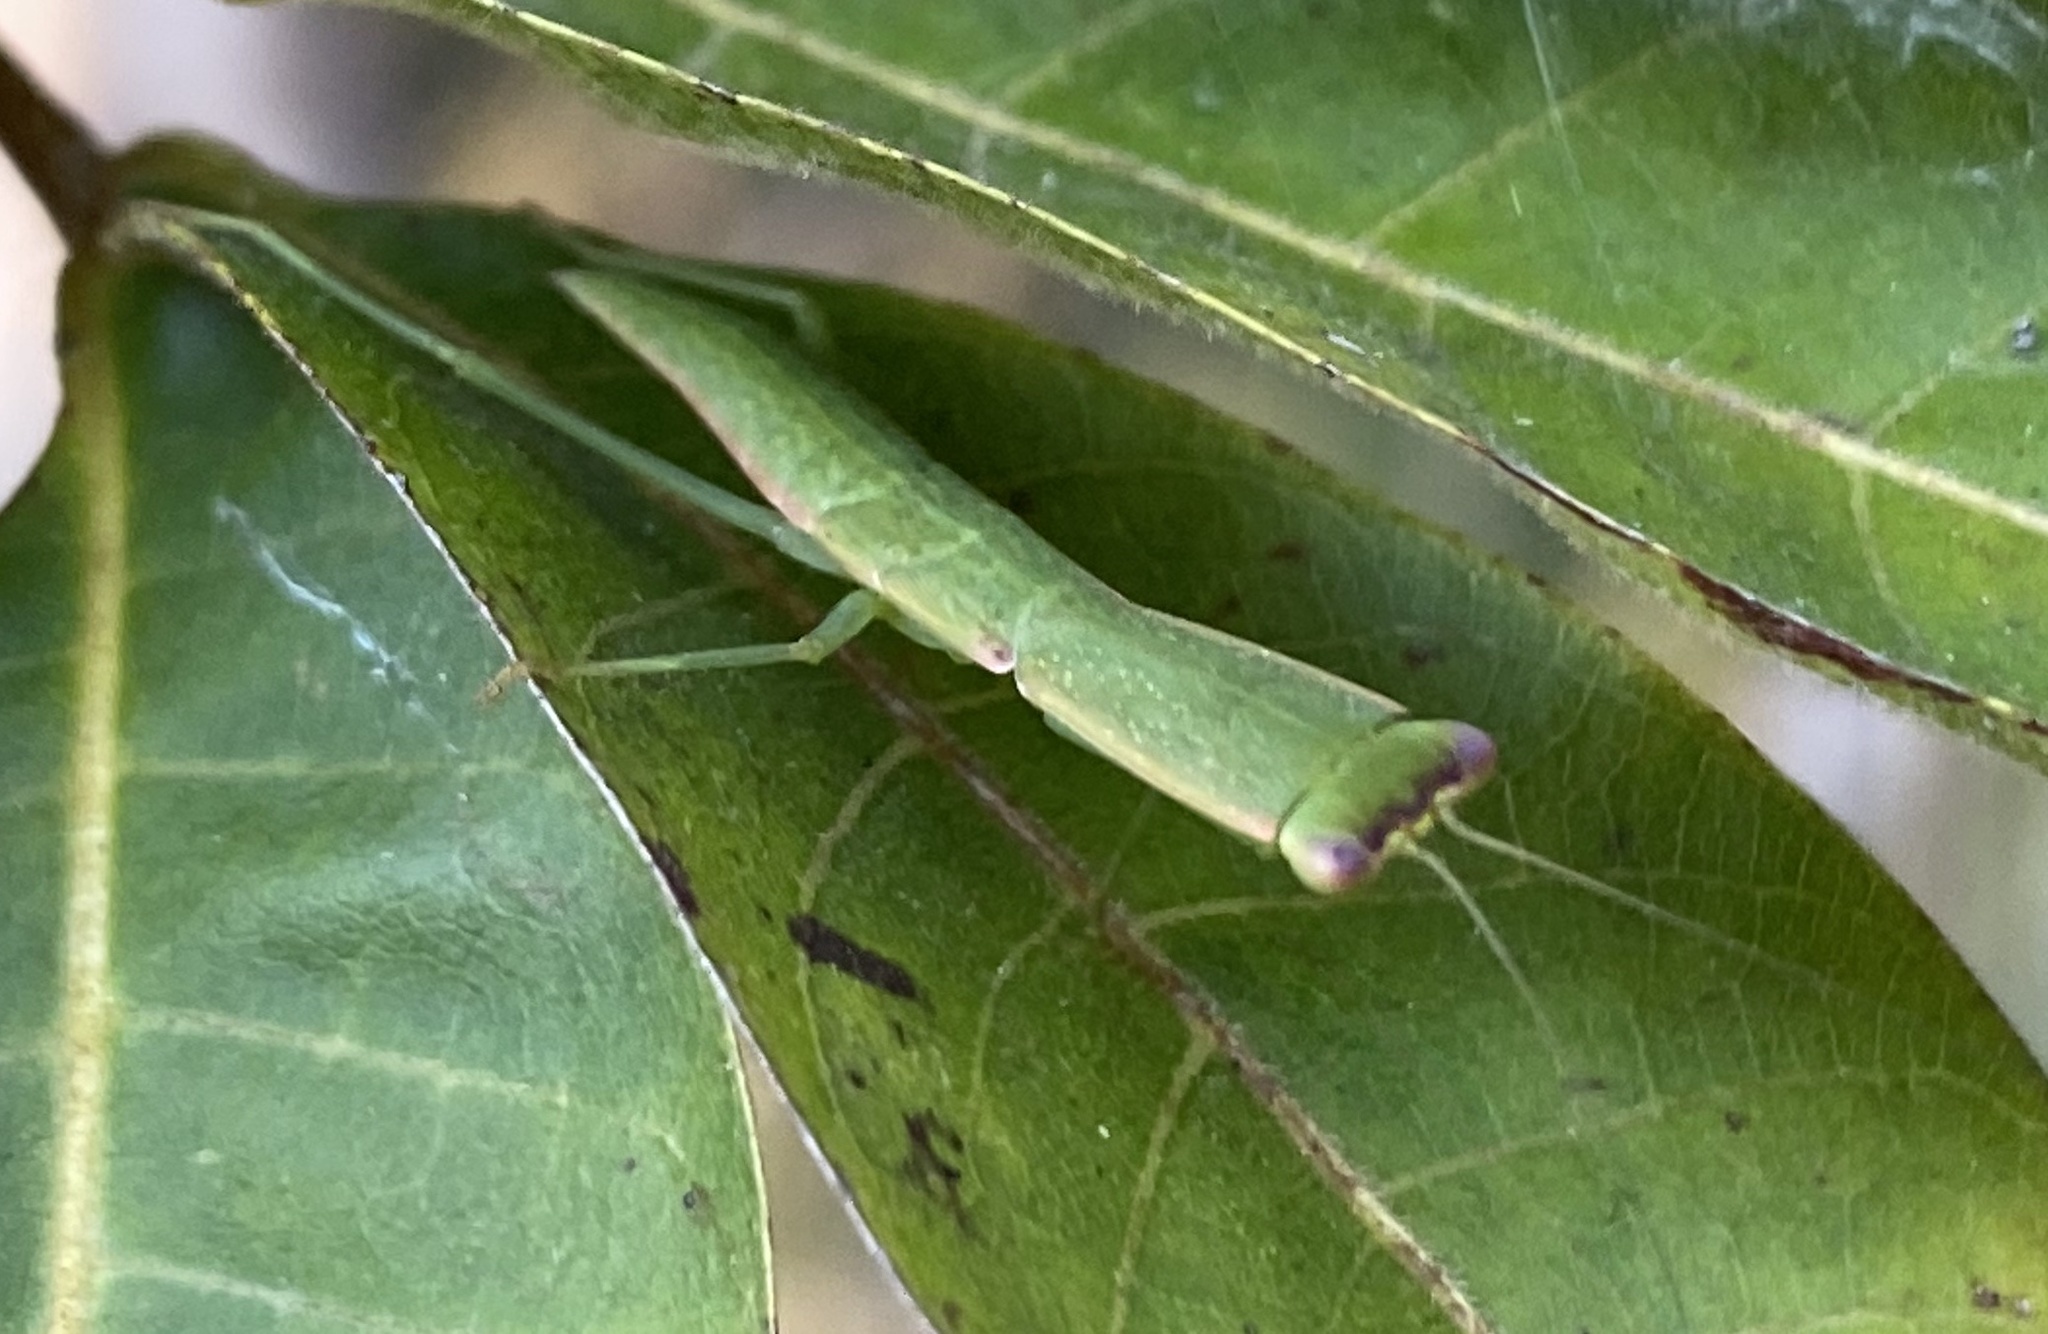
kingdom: Animalia
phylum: Arthropoda
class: Insecta
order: Mantodea
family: Mantidae
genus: Orthodera
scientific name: Orthodera ministralis
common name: Mantis
